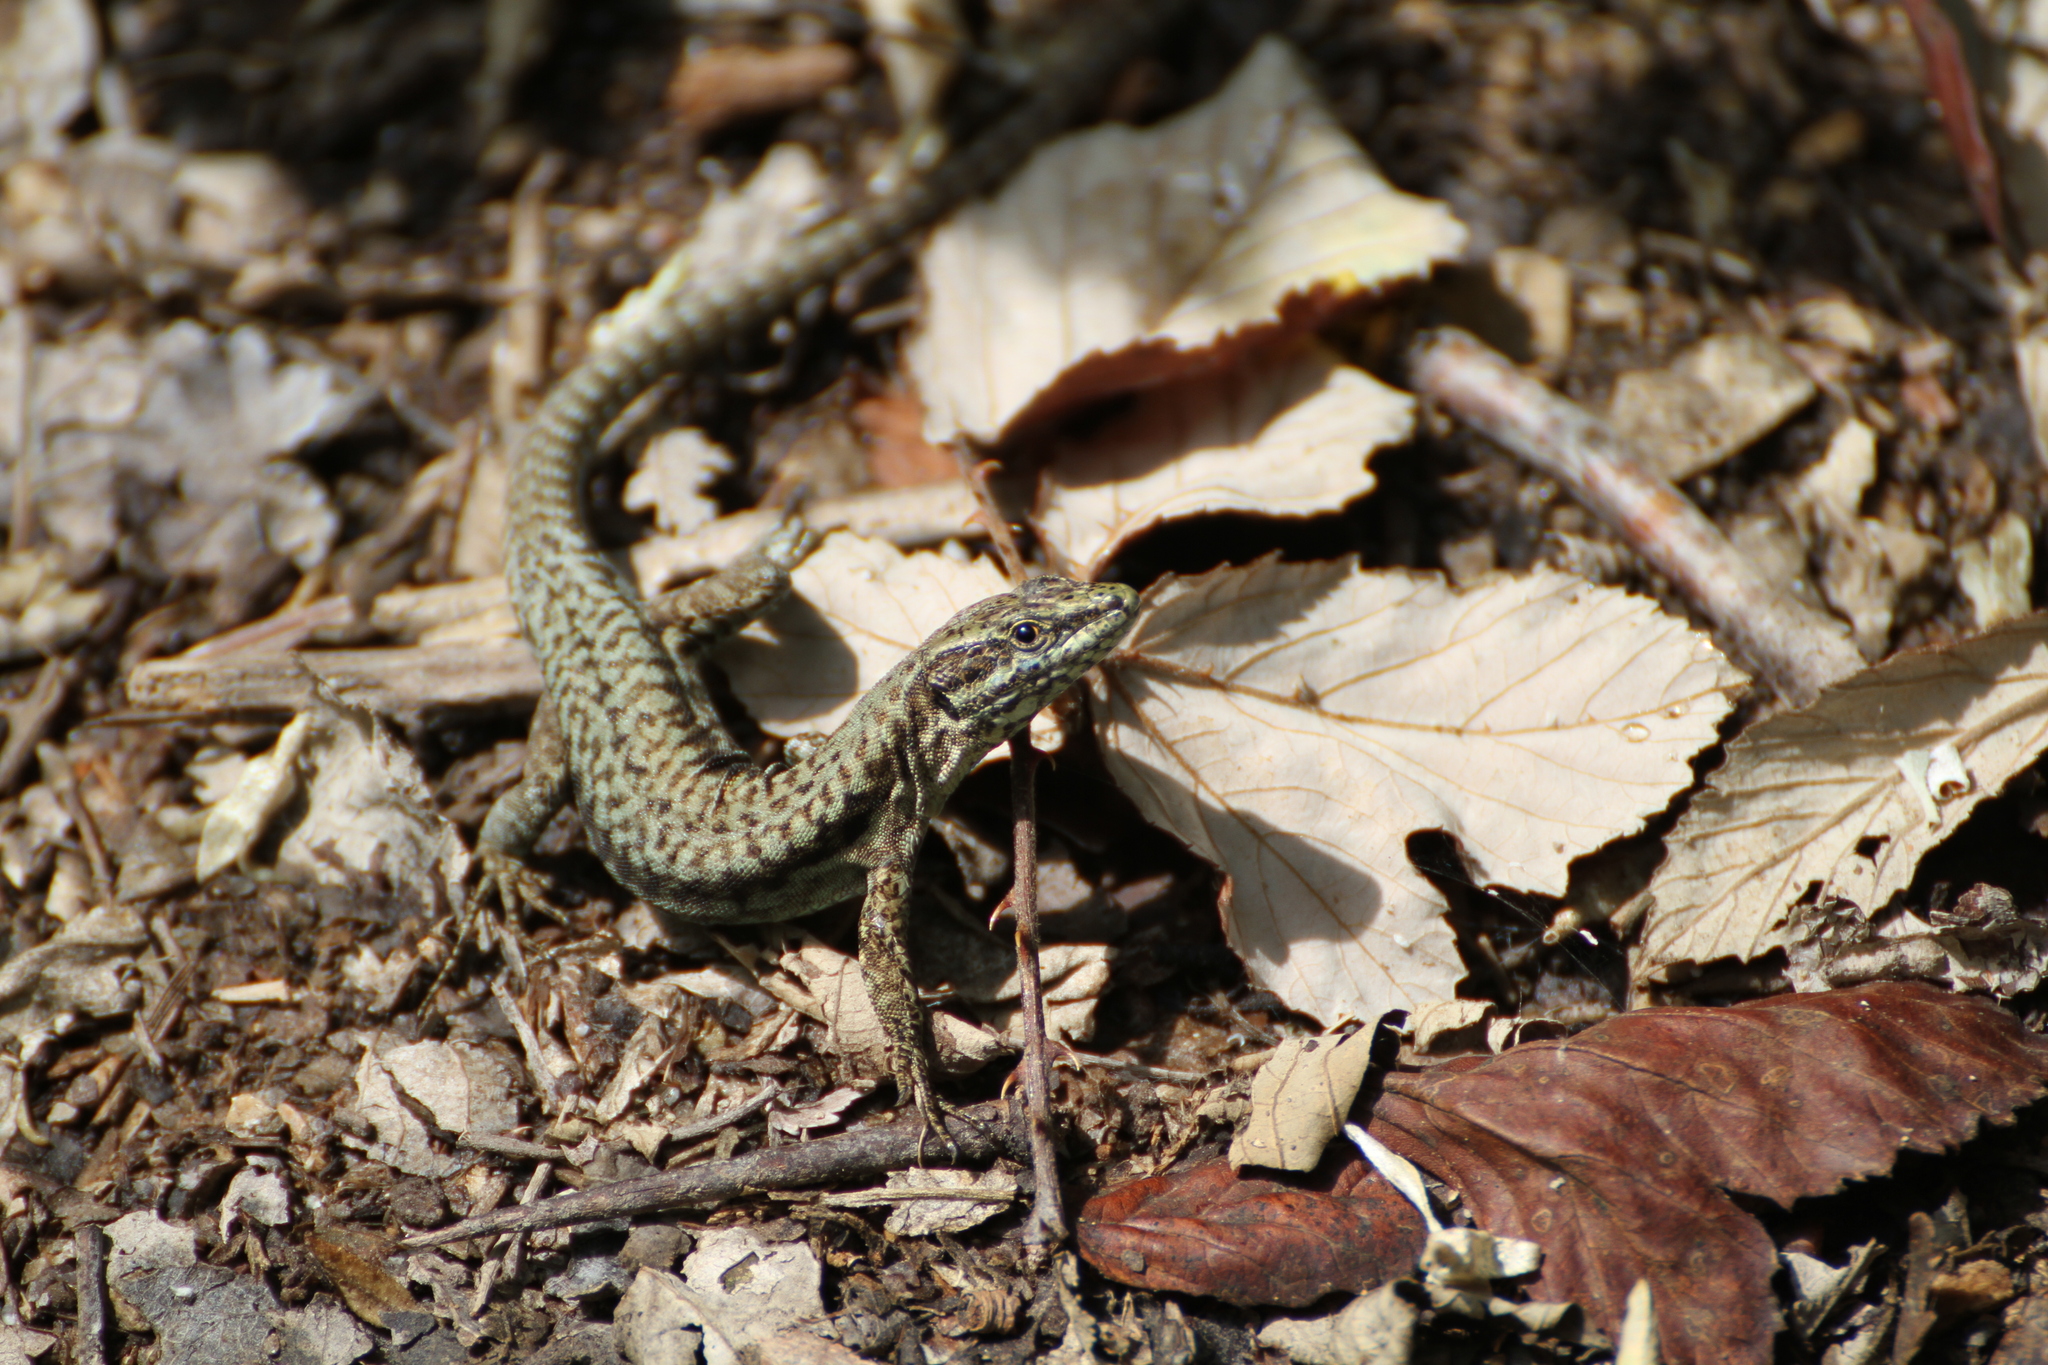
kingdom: Animalia
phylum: Chordata
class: Squamata
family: Lacertidae
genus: Podarcis
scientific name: Podarcis muralis
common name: Common wall lizard
